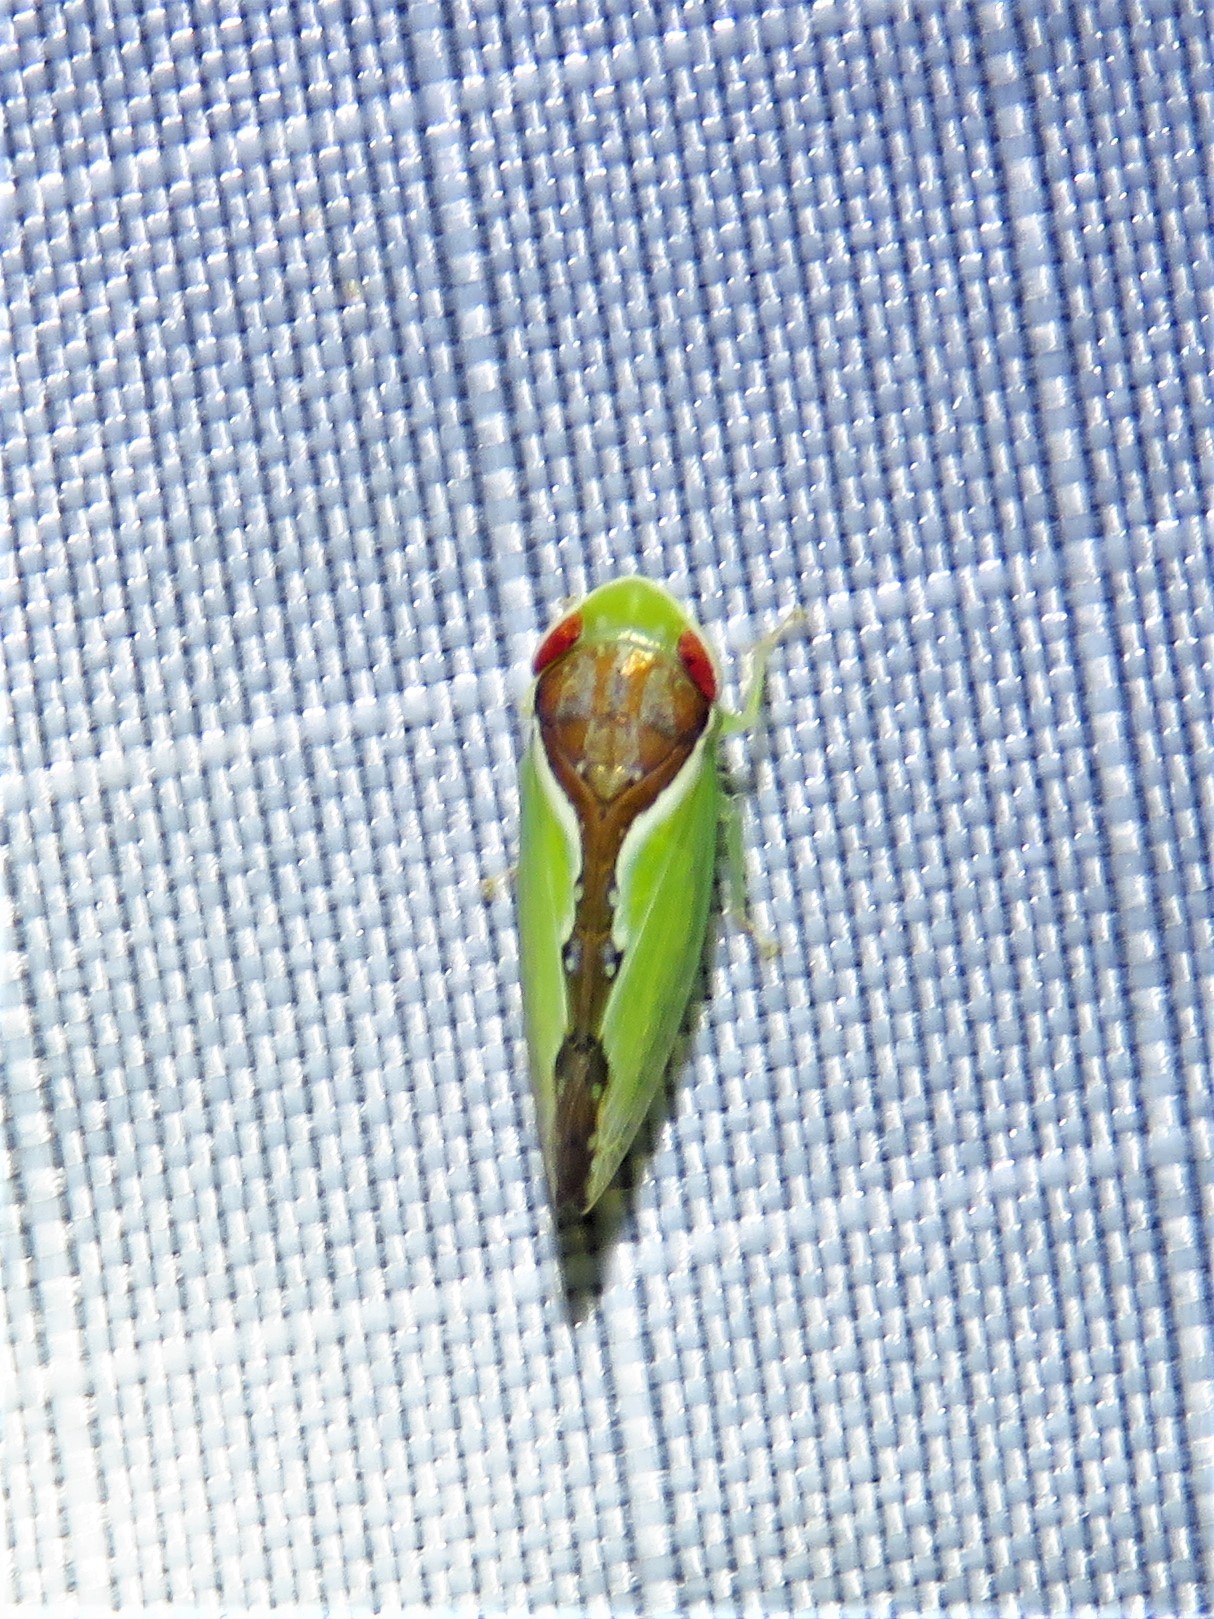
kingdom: Animalia
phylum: Arthropoda
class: Insecta
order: Hemiptera
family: Cicadellidae
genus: Omansobara ing
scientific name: Omansobara ing Omansobara palliolata
